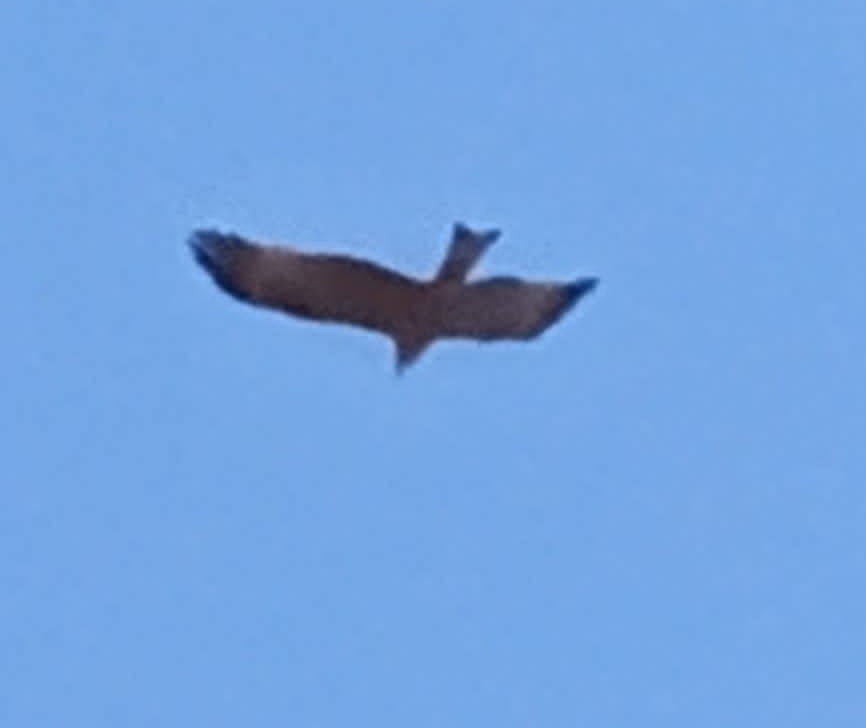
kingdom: Animalia
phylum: Chordata
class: Aves
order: Accipitriformes
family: Accipitridae
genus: Milvus
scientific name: Milvus milvus
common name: Red kite
